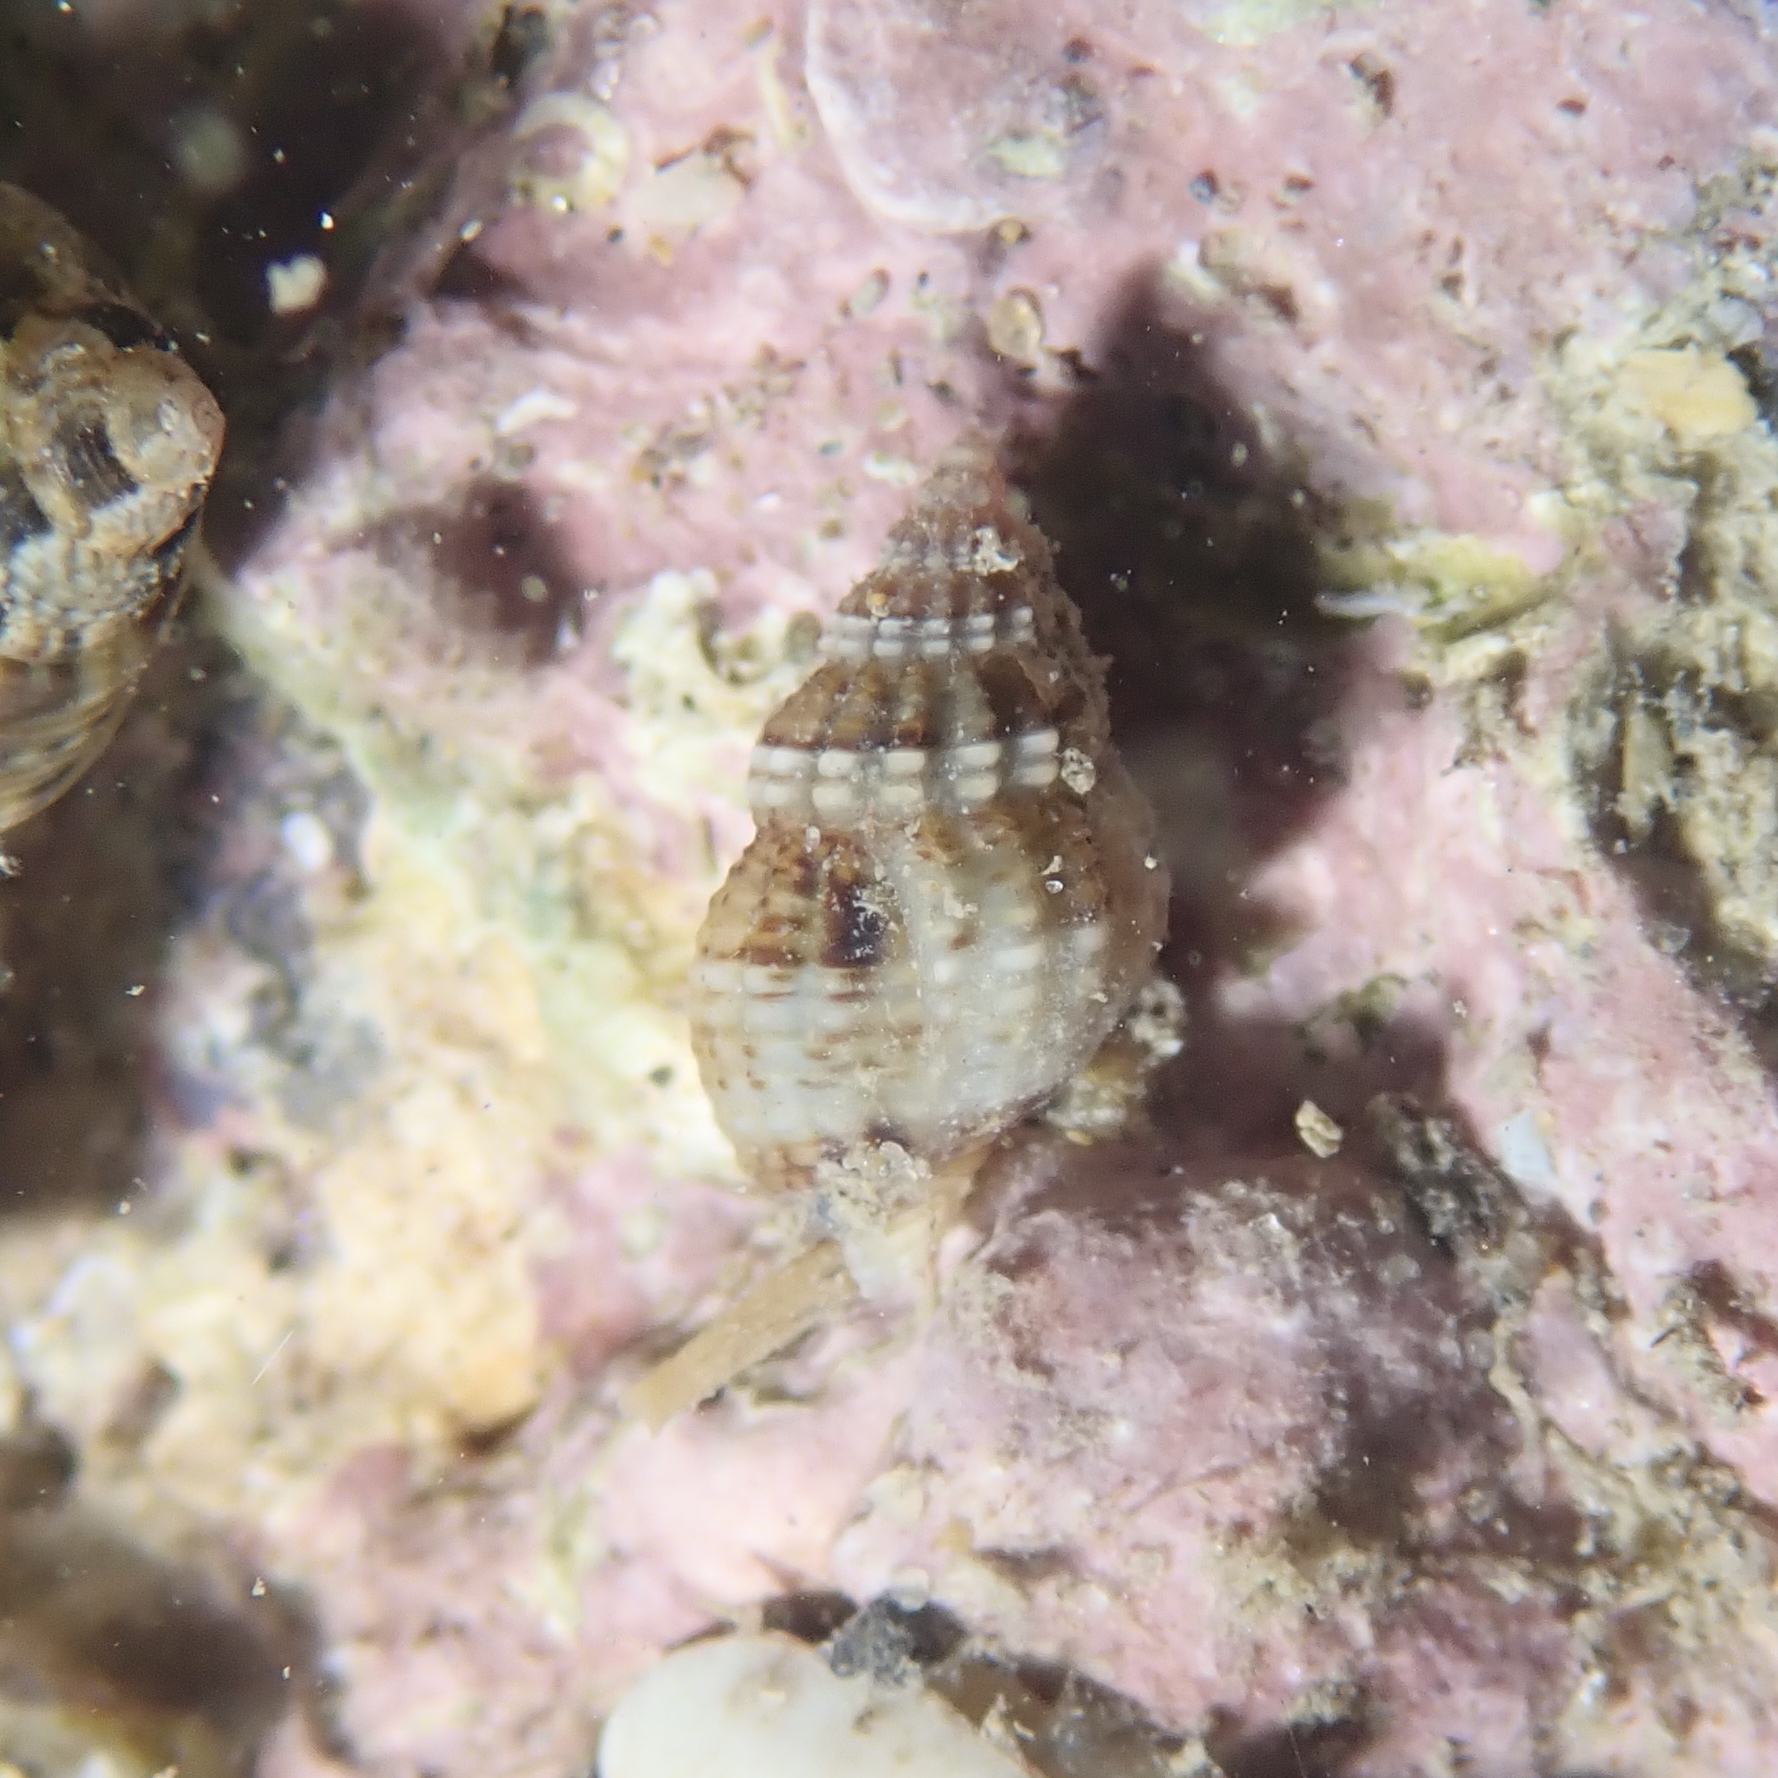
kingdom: Animalia
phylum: Mollusca
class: Gastropoda
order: Neogastropoda
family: Nassariidae
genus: Tritia
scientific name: Tritia incrassata
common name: Thick-lipped dog whelk
